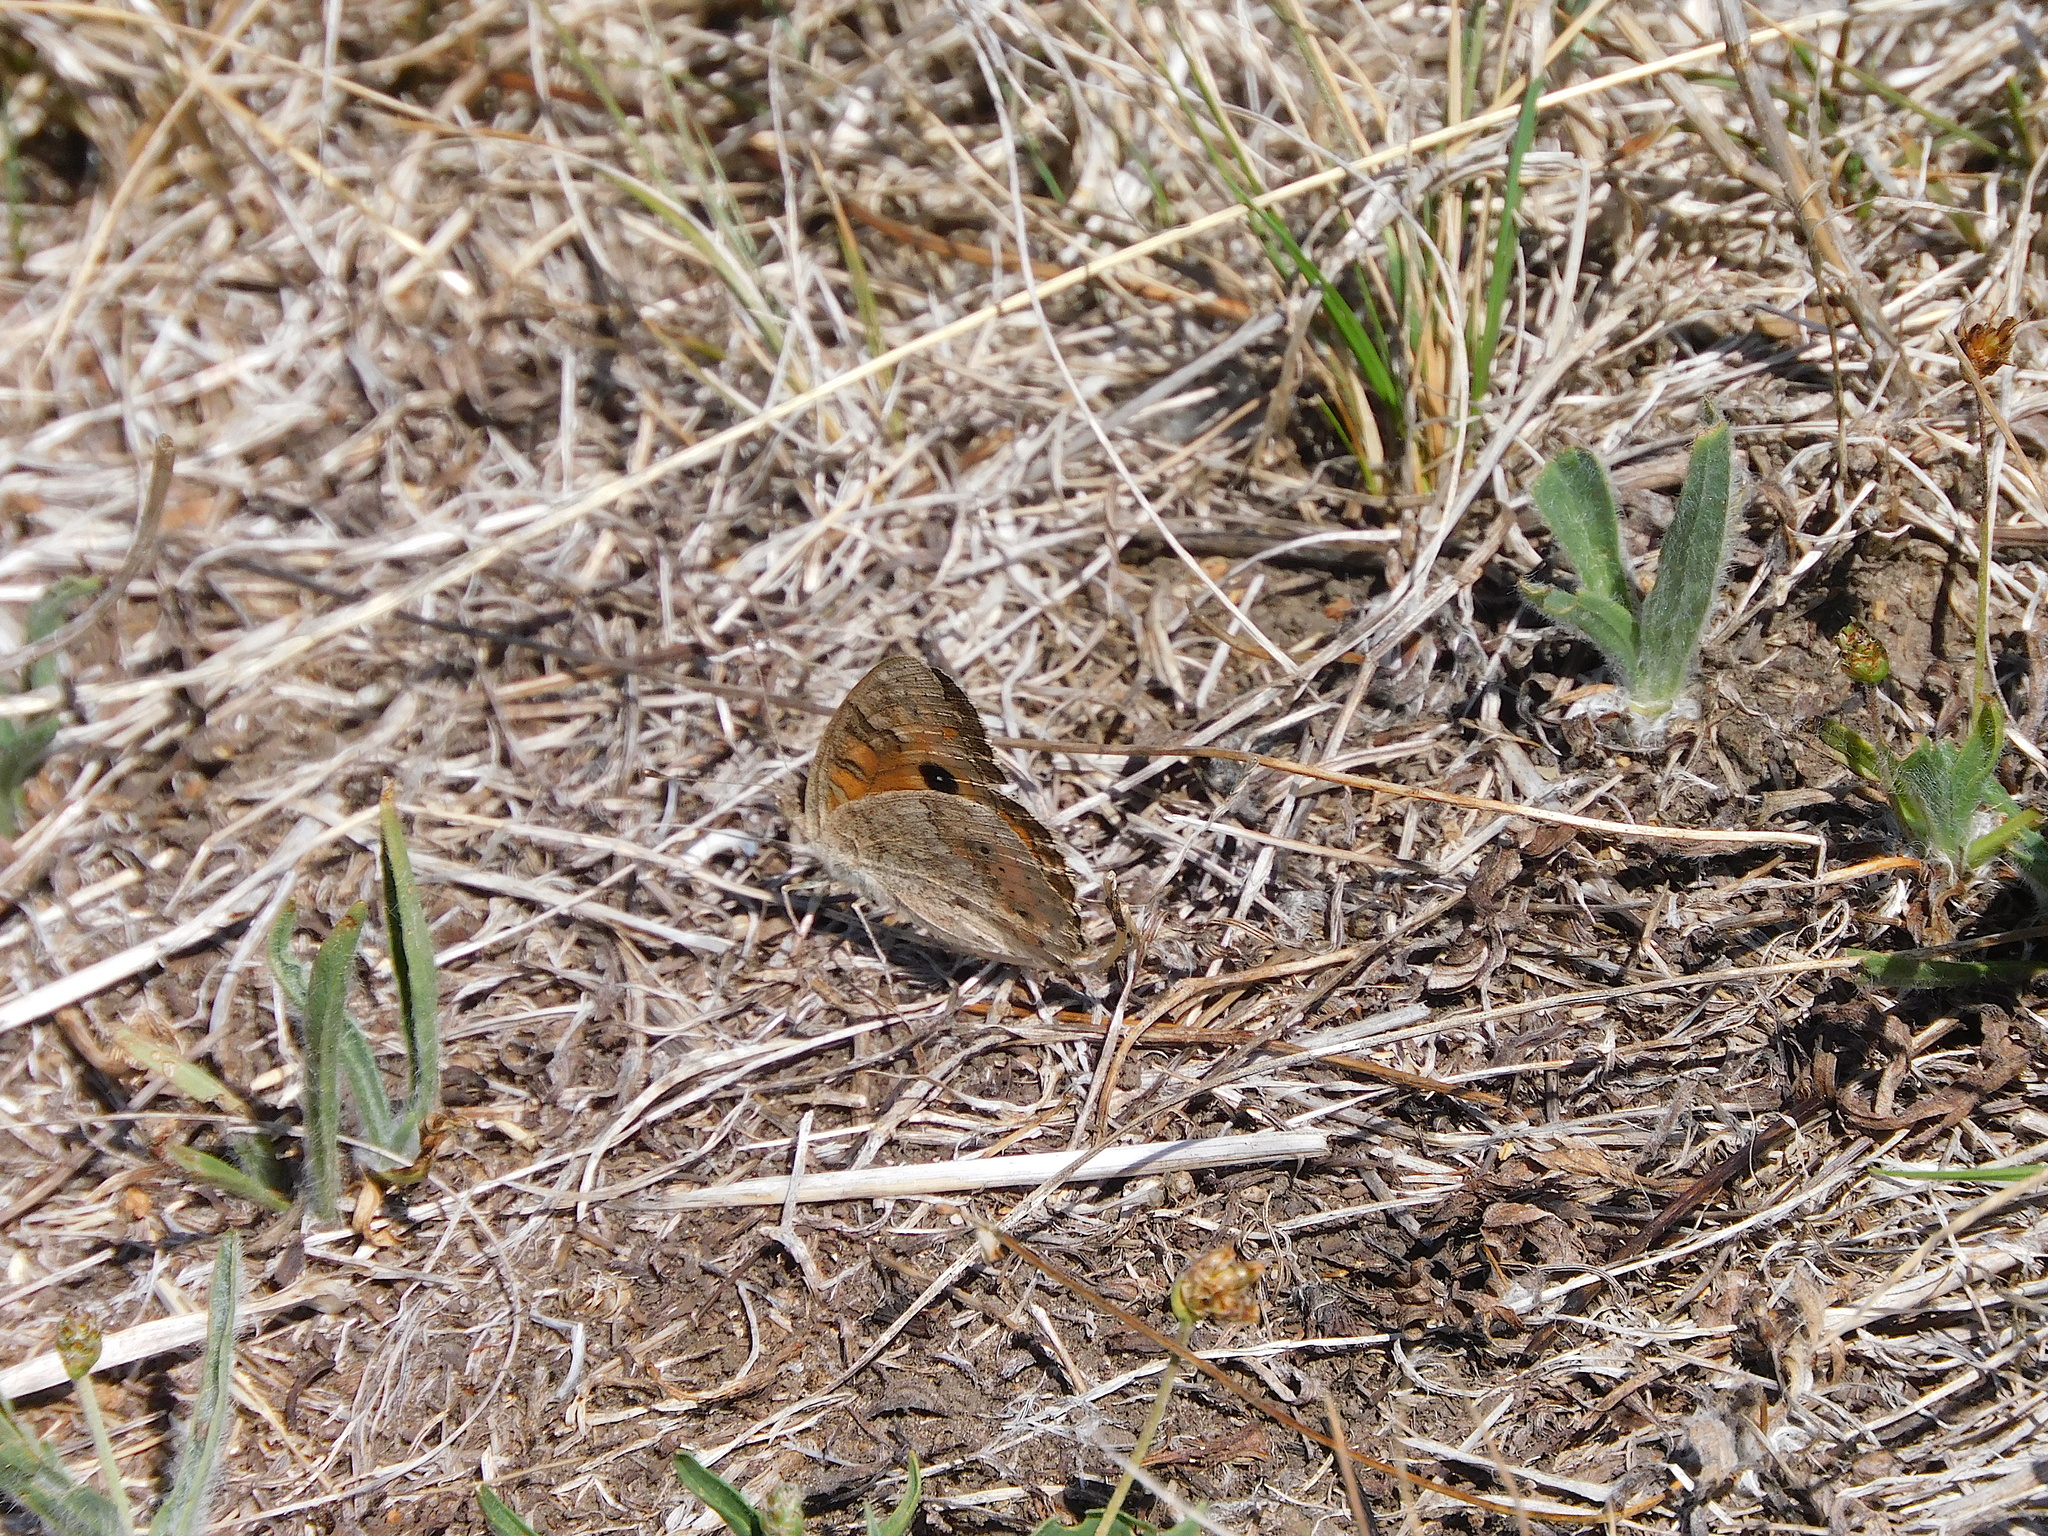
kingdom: Animalia
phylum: Arthropoda
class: Insecta
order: Lepidoptera
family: Nymphalidae
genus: Junonia
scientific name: Junonia villida
